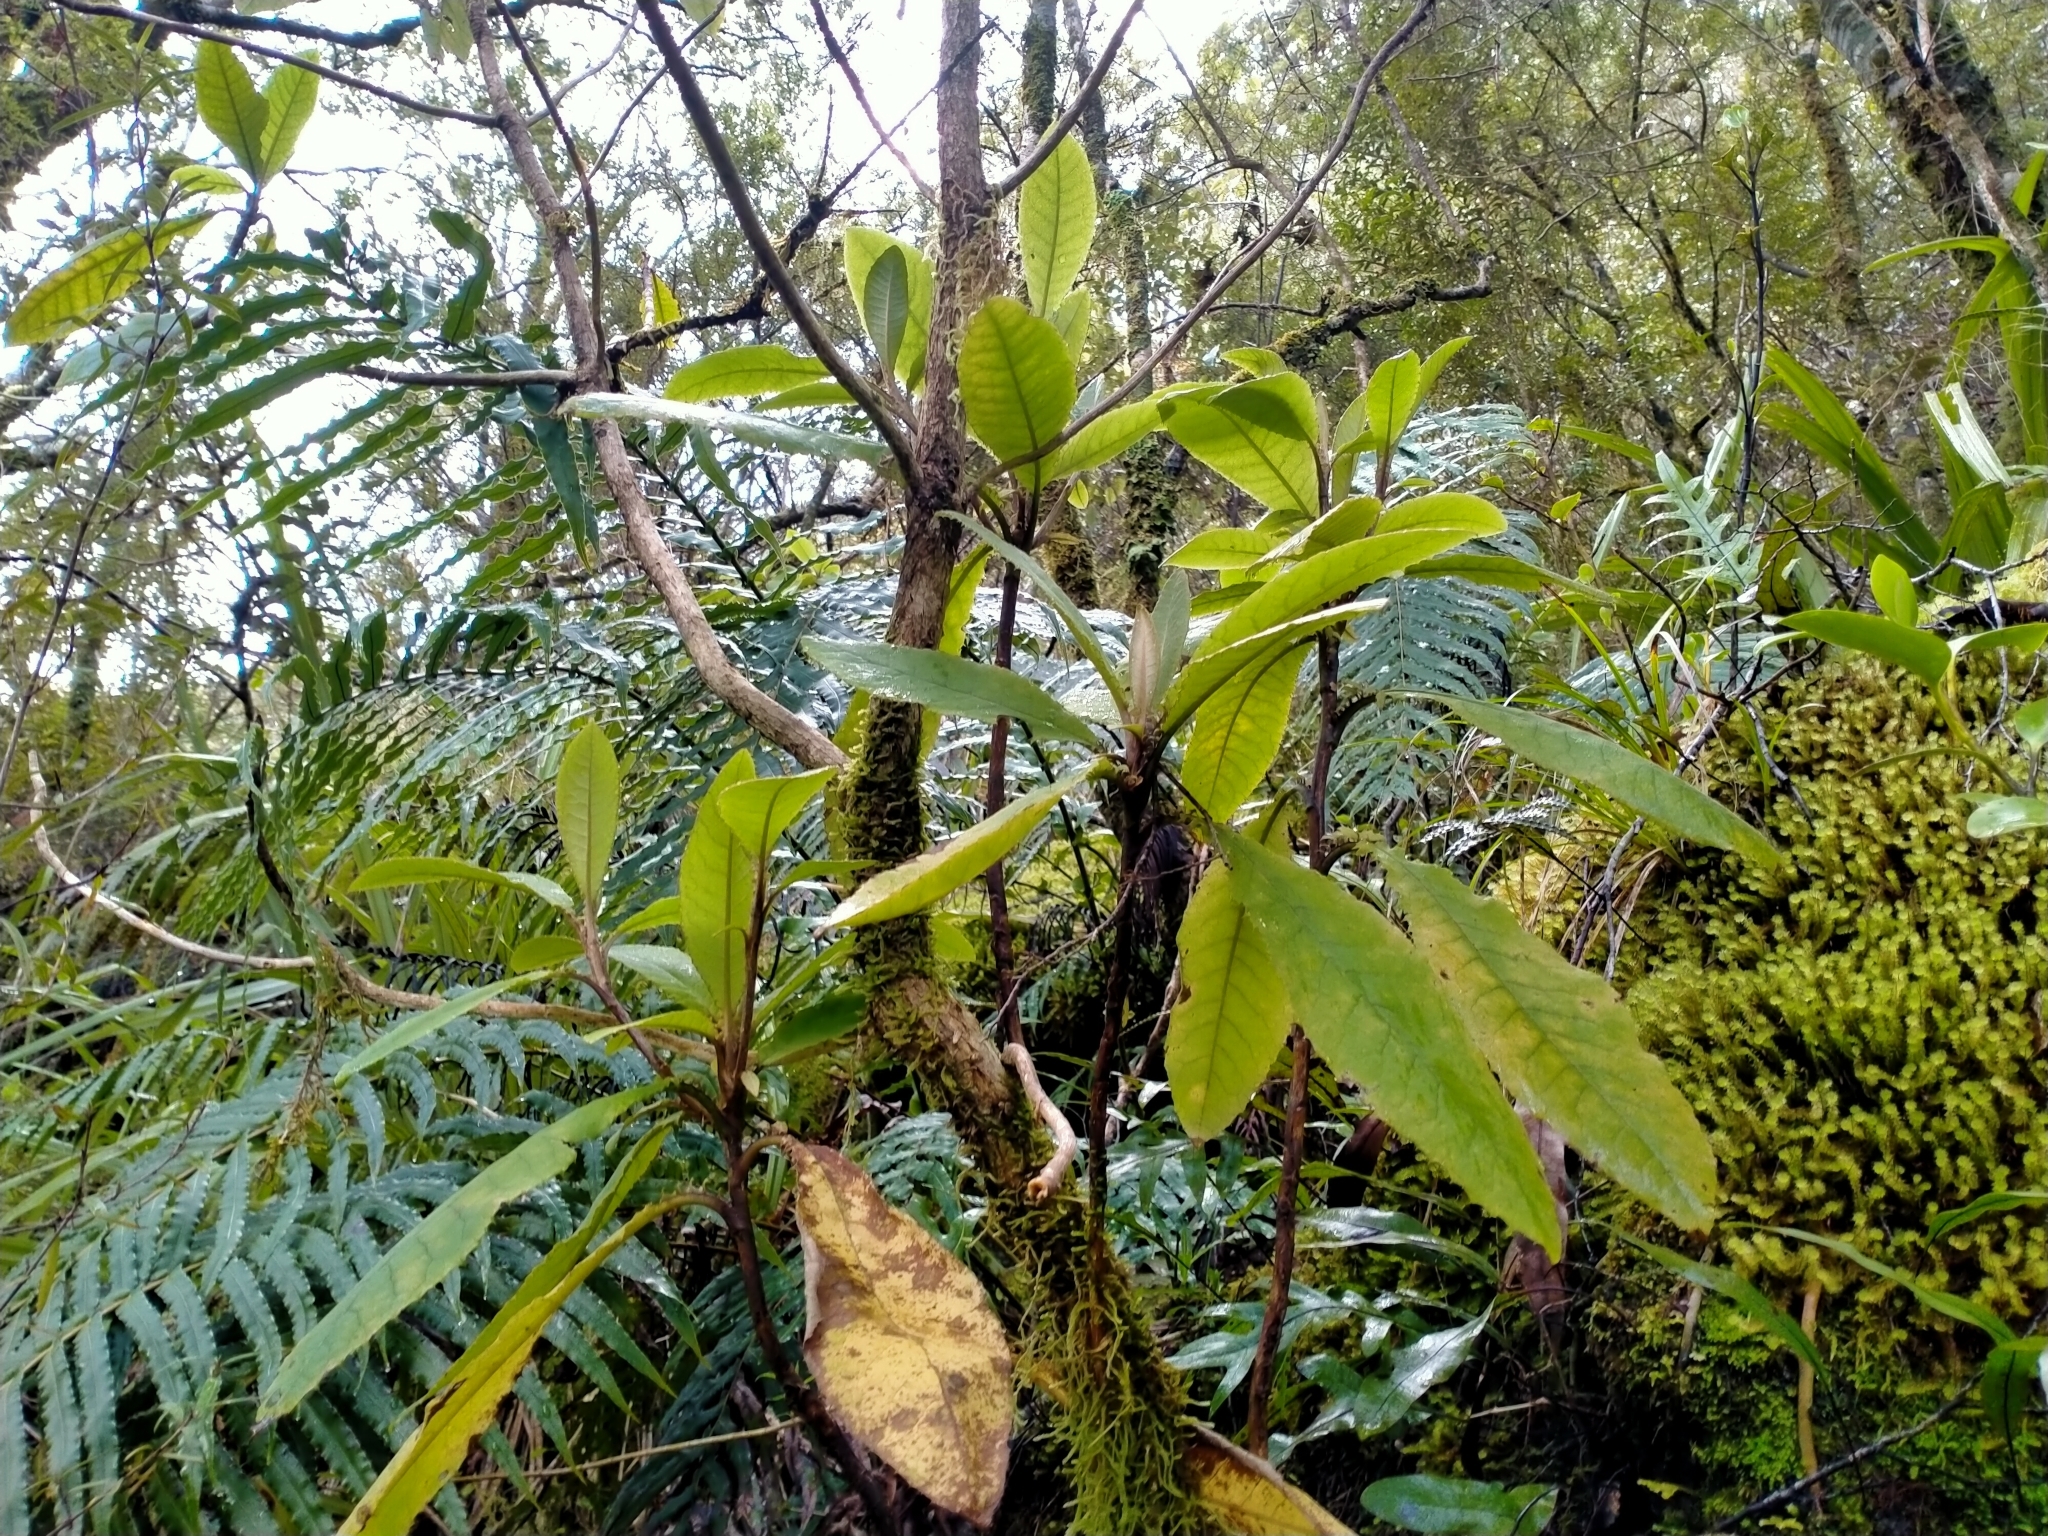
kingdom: Plantae
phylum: Tracheophyta
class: Magnoliopsida
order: Asterales
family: Asteraceae
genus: Brachyglottis
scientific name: Brachyglottis hectorii
